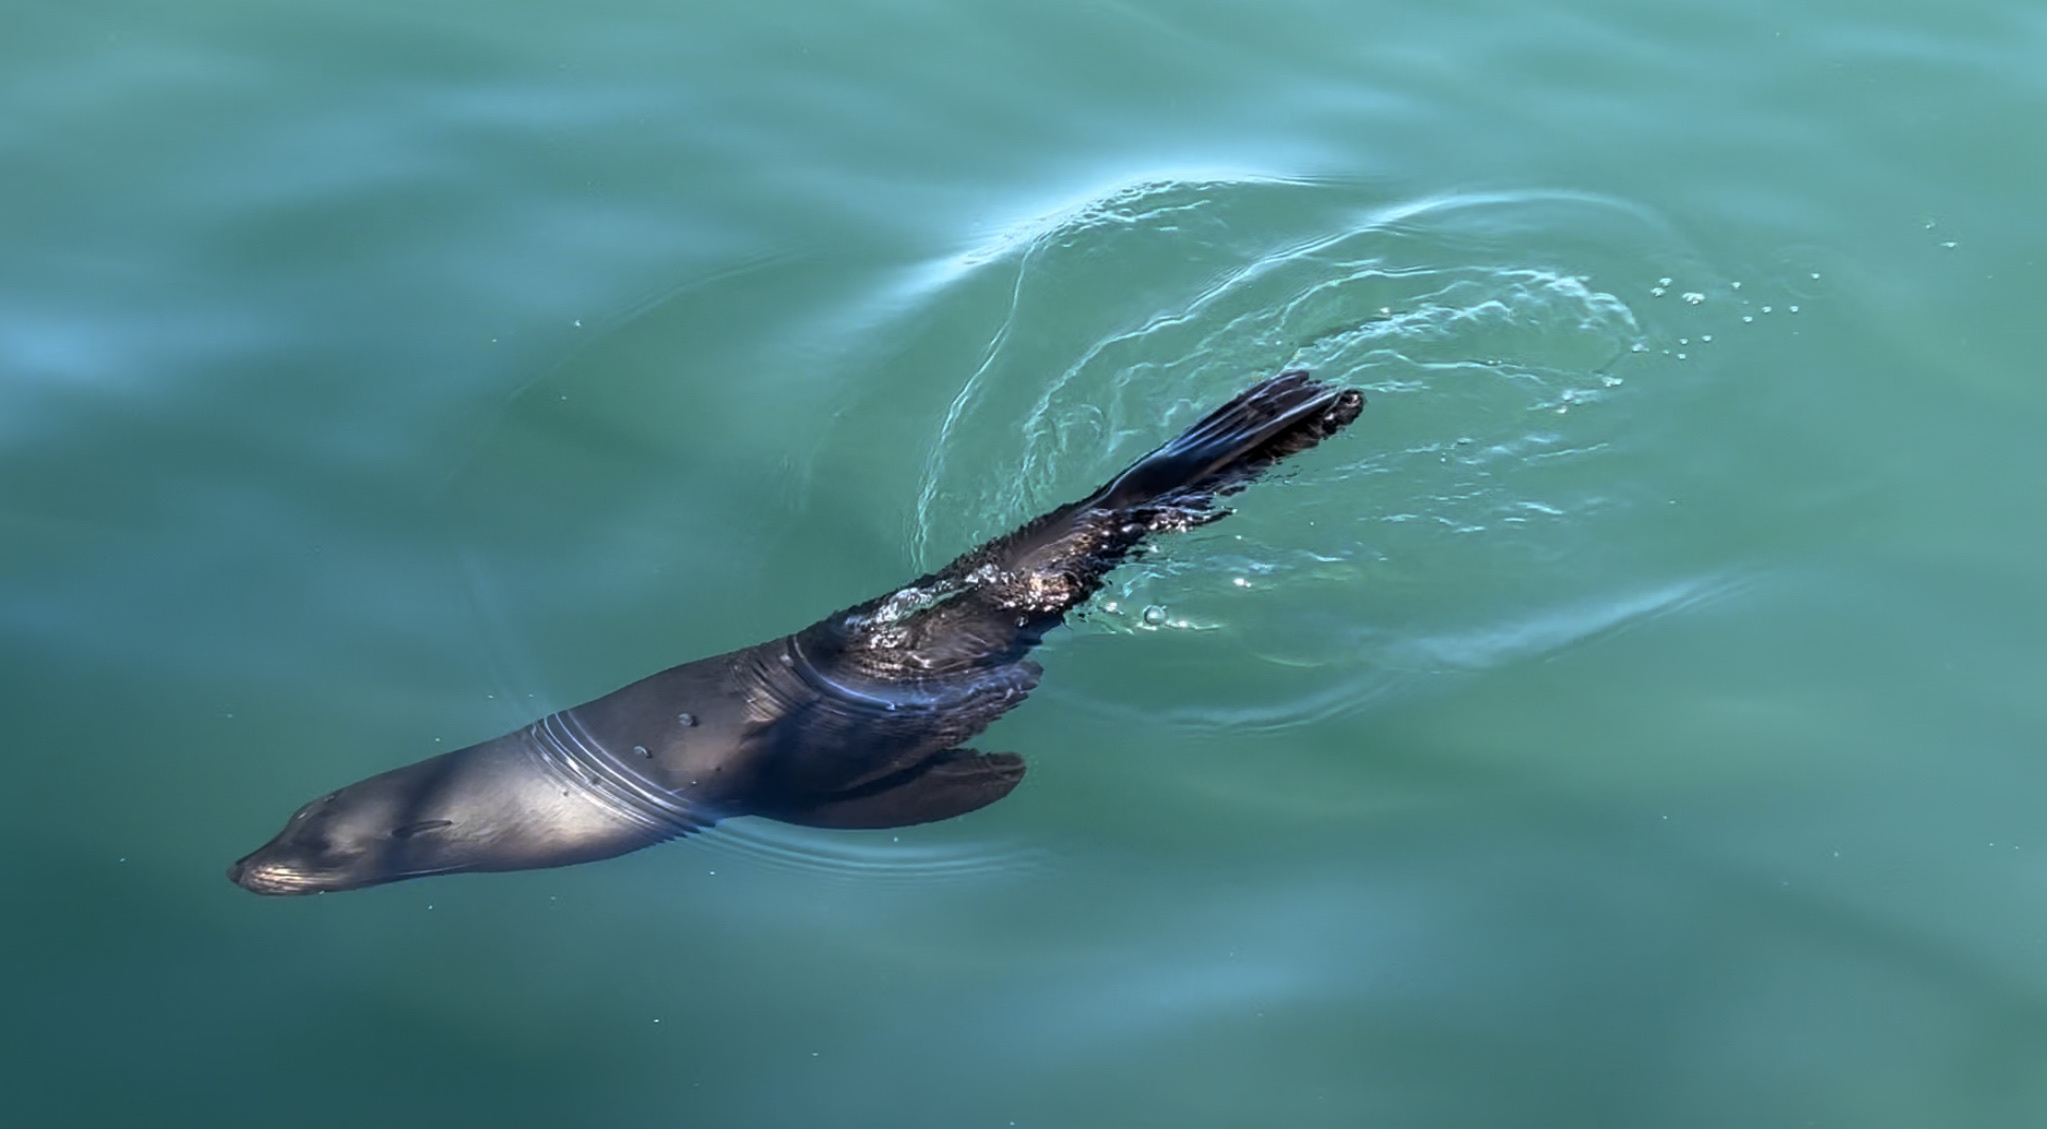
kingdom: Animalia
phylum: Chordata
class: Mammalia
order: Carnivora
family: Otariidae
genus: Arctocephalus
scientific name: Arctocephalus forsteri
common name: New zealand fur seal
